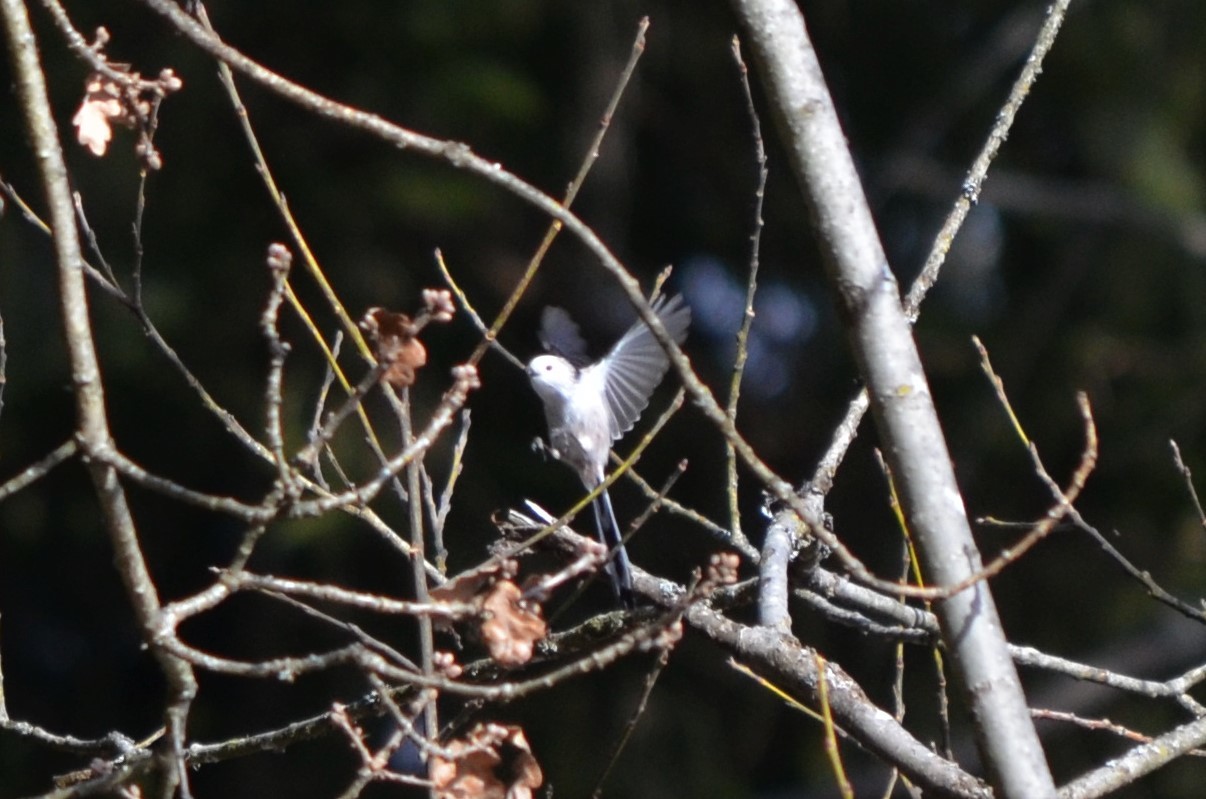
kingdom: Animalia
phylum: Chordata
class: Aves
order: Passeriformes
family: Aegithalidae
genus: Aegithalos
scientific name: Aegithalos caudatus
